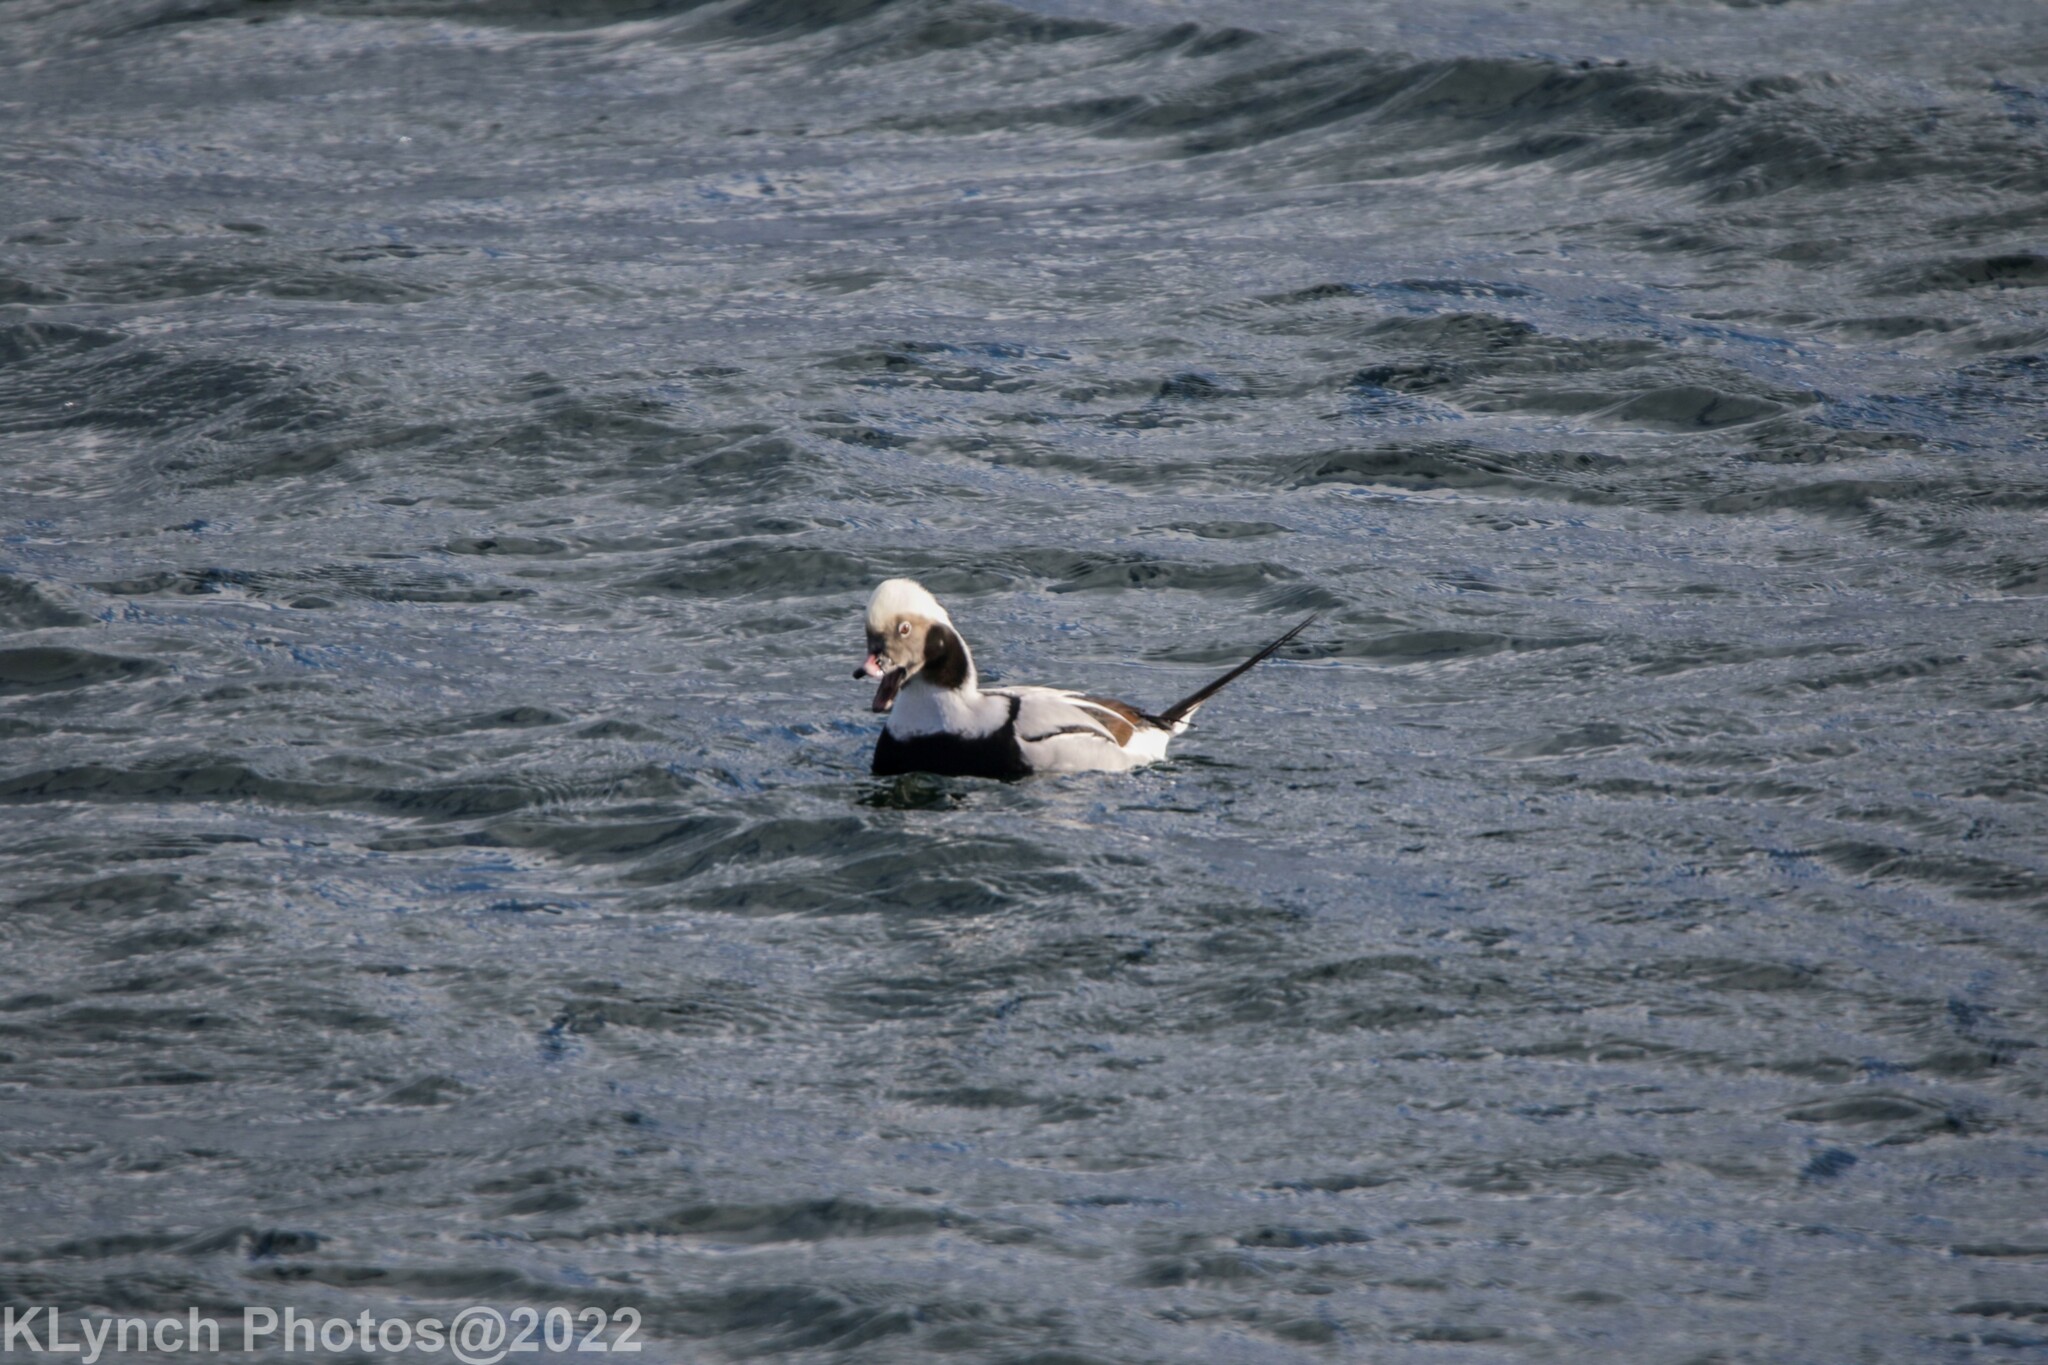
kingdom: Animalia
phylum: Chordata
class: Aves
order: Anseriformes
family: Anatidae
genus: Clangula
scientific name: Clangula hyemalis
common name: Long-tailed duck
